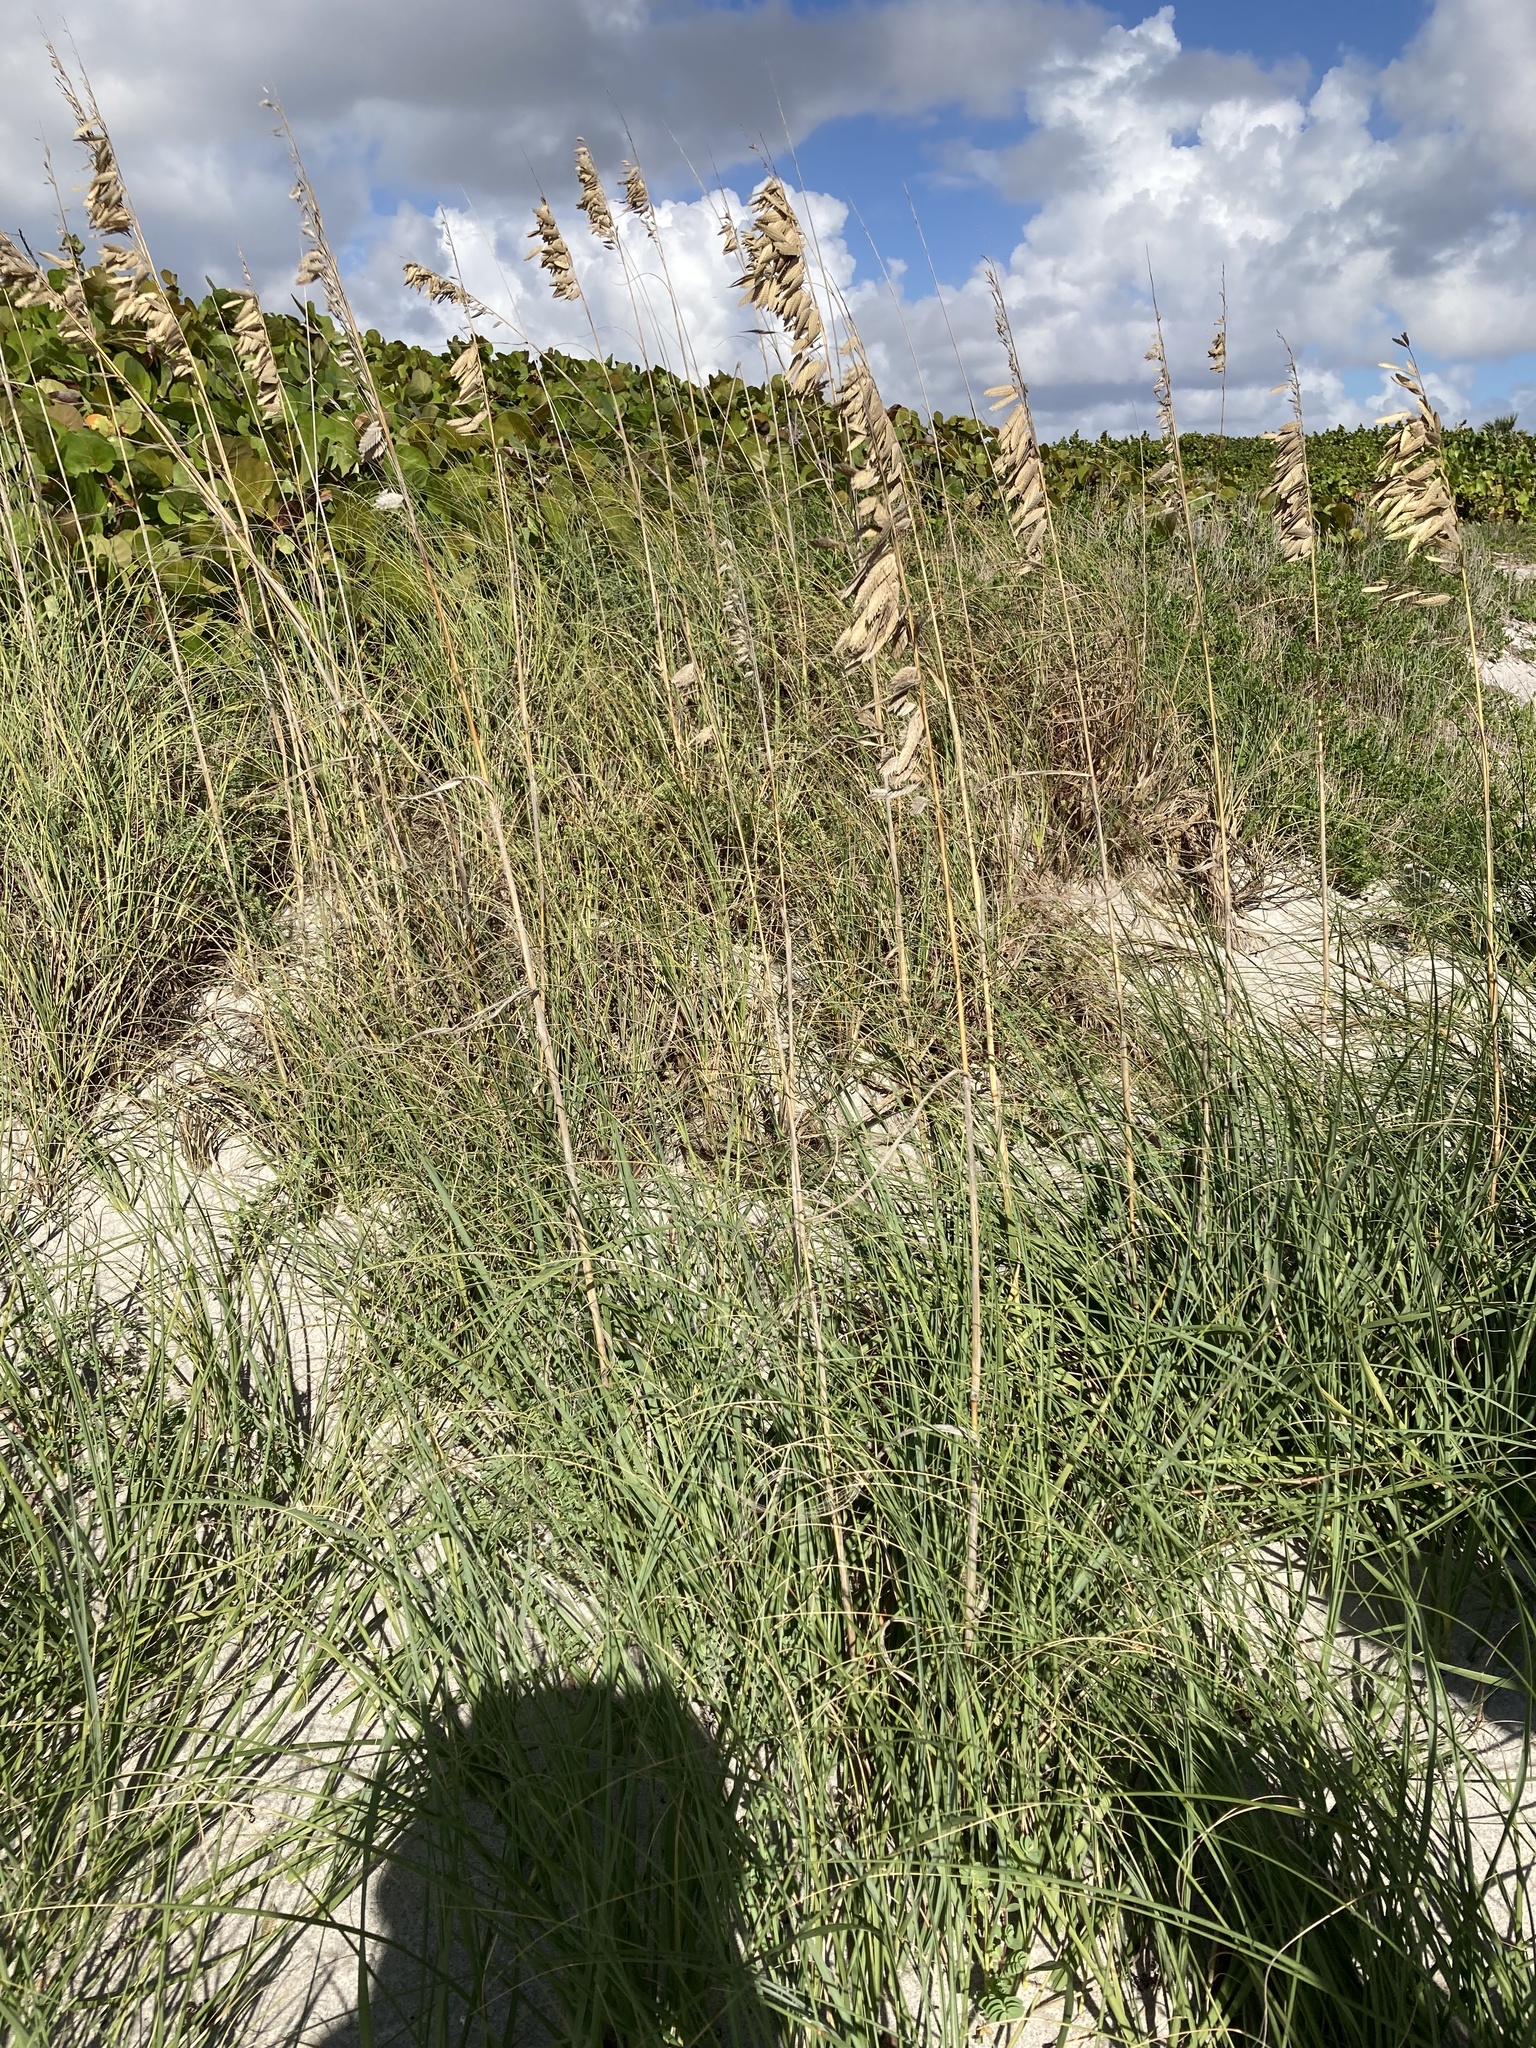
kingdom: Plantae
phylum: Tracheophyta
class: Liliopsida
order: Poales
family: Poaceae
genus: Uniola
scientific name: Uniola paniculata
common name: Seaside-oats
